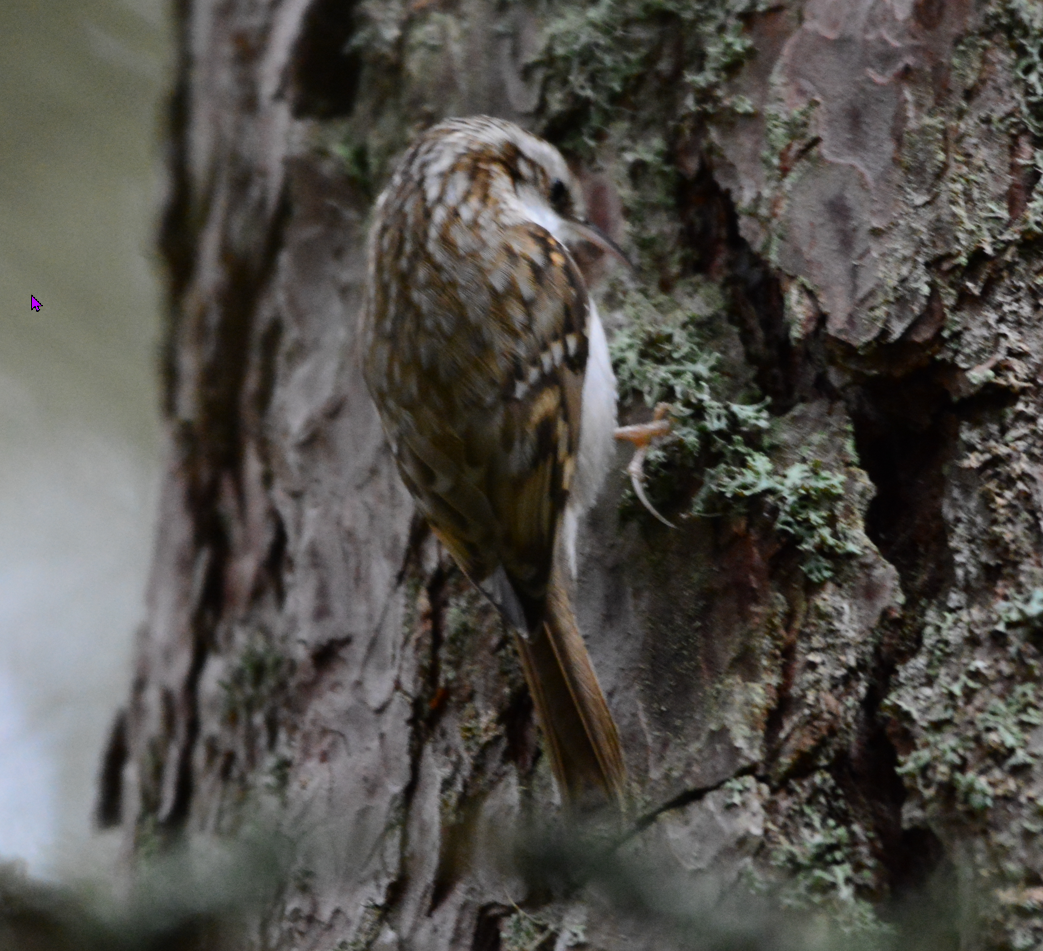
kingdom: Animalia
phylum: Chordata
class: Aves
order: Passeriformes
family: Certhiidae
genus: Certhia
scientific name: Certhia familiaris
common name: Eurasian treecreeper
